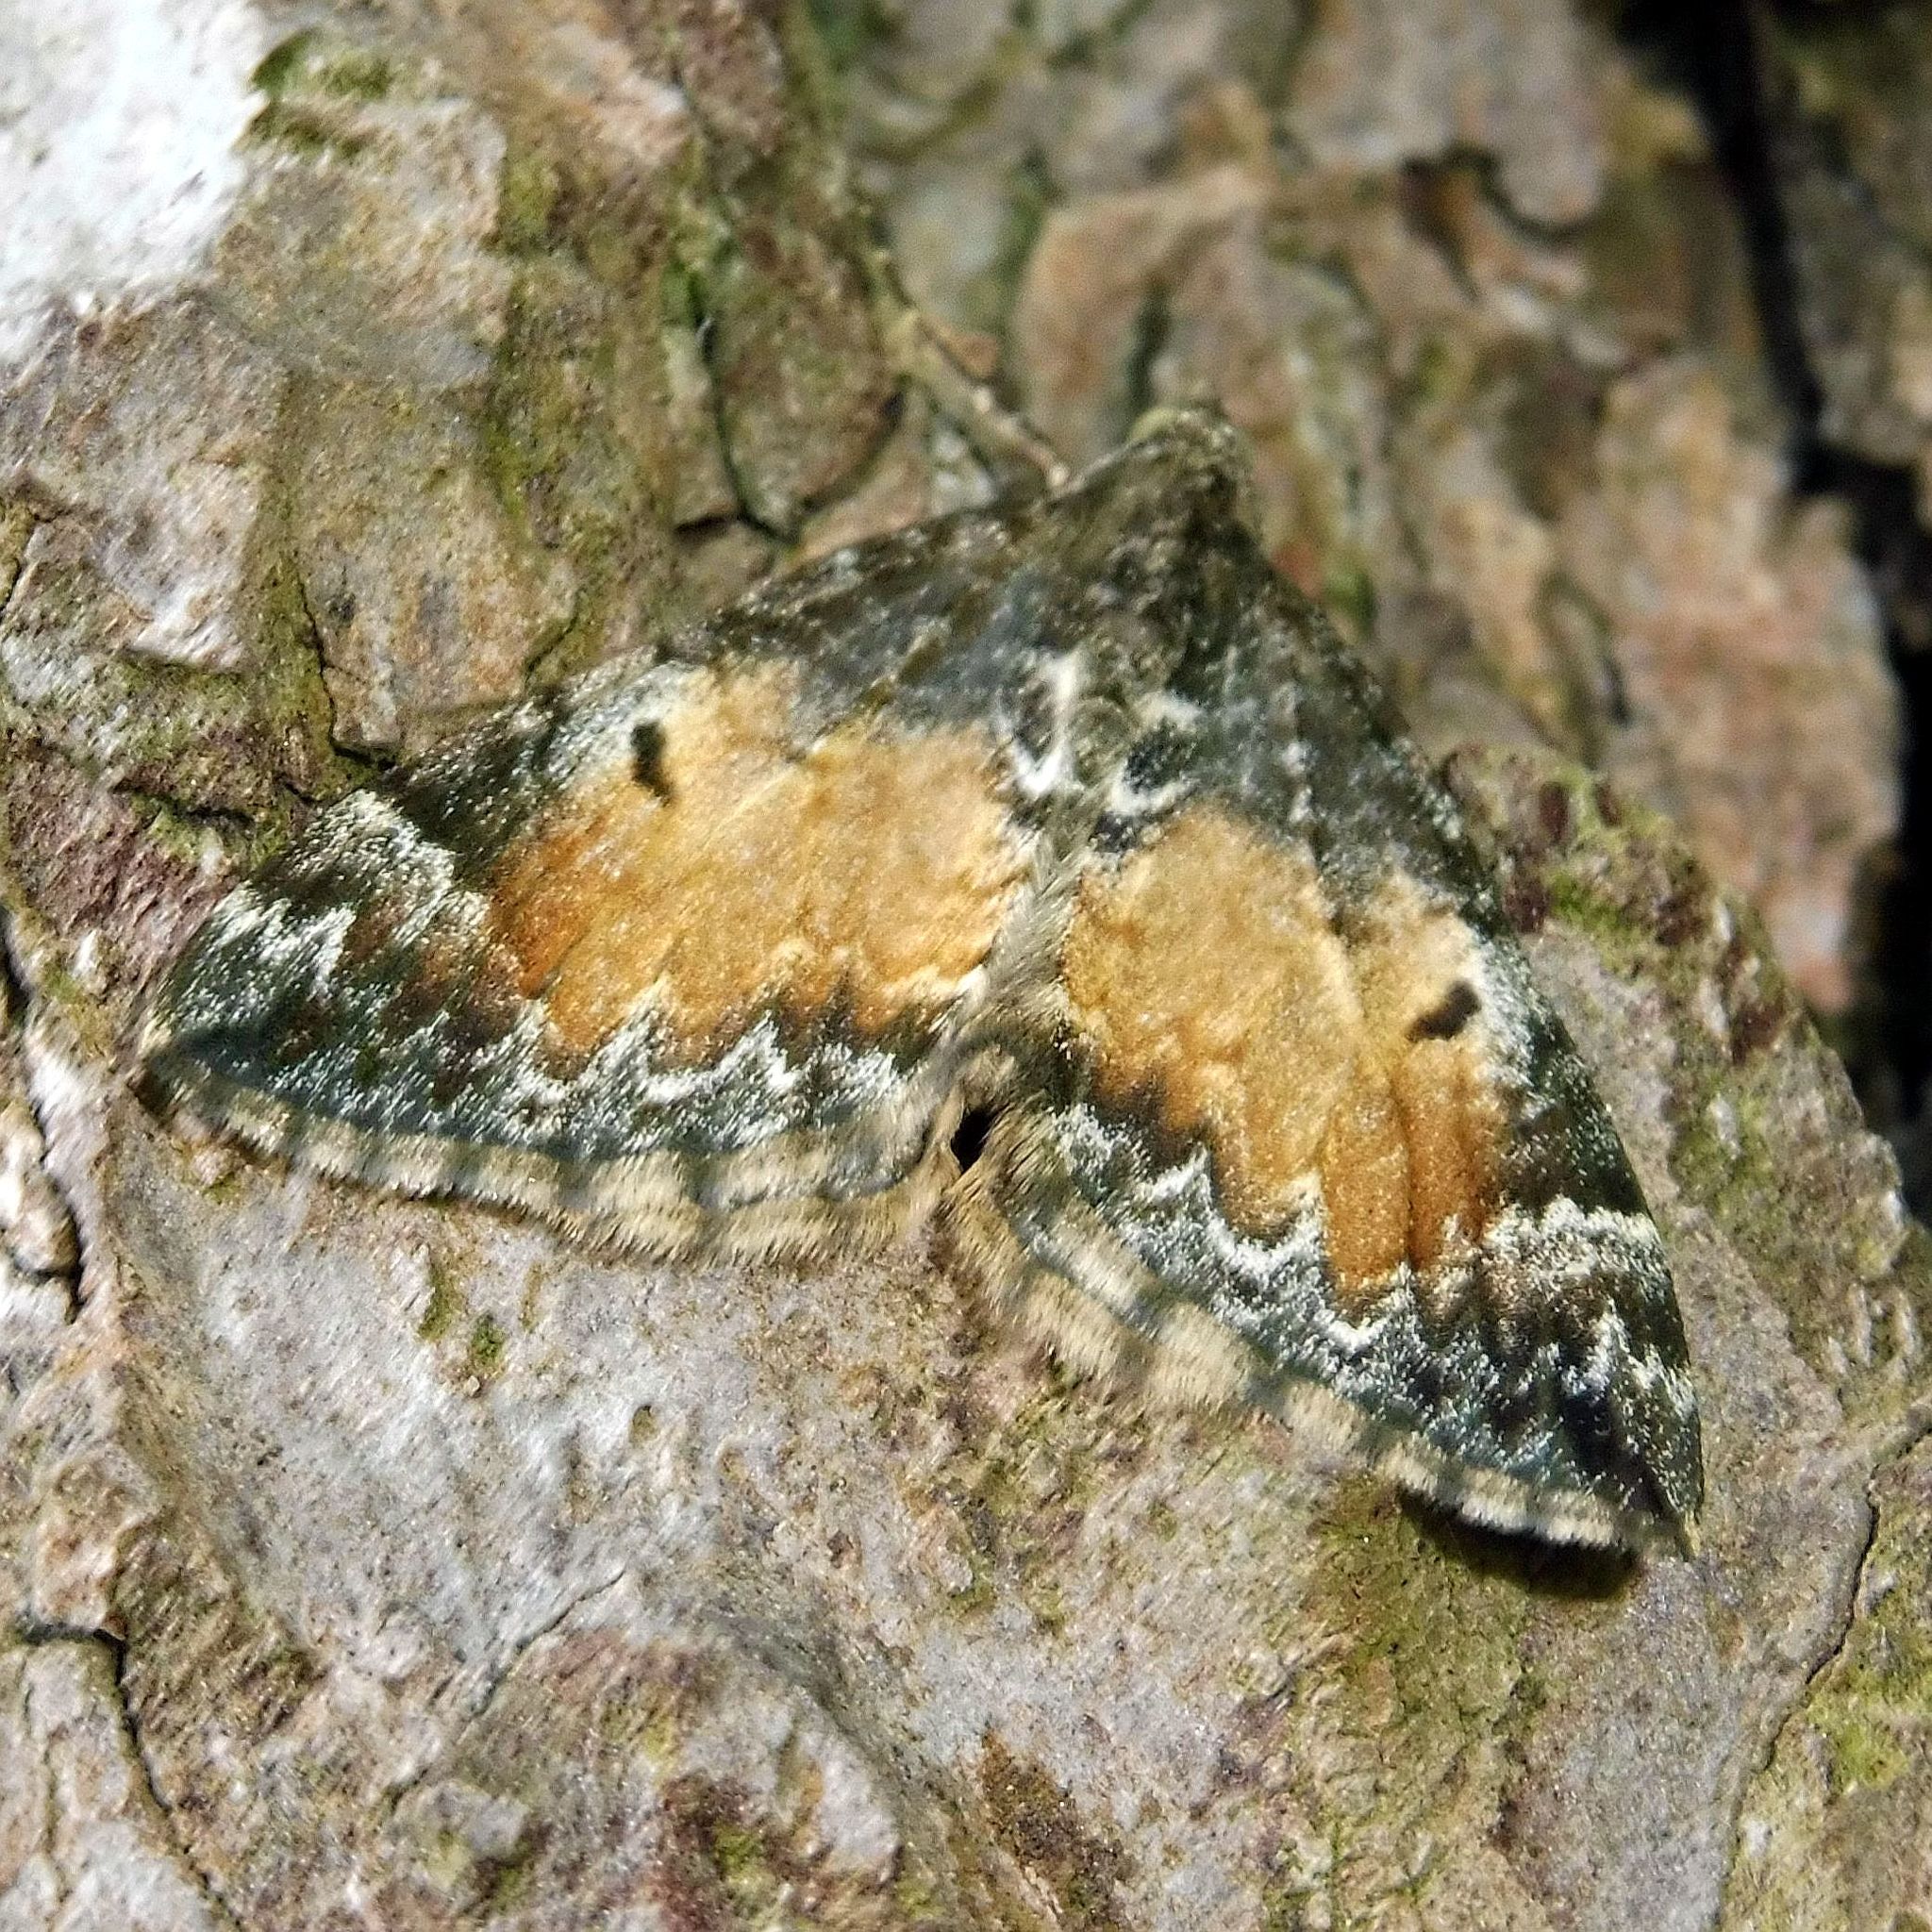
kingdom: Animalia
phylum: Arthropoda
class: Insecta
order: Lepidoptera
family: Geometridae
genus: Dysstroma
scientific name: Dysstroma truncata
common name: Common marbled carpet
